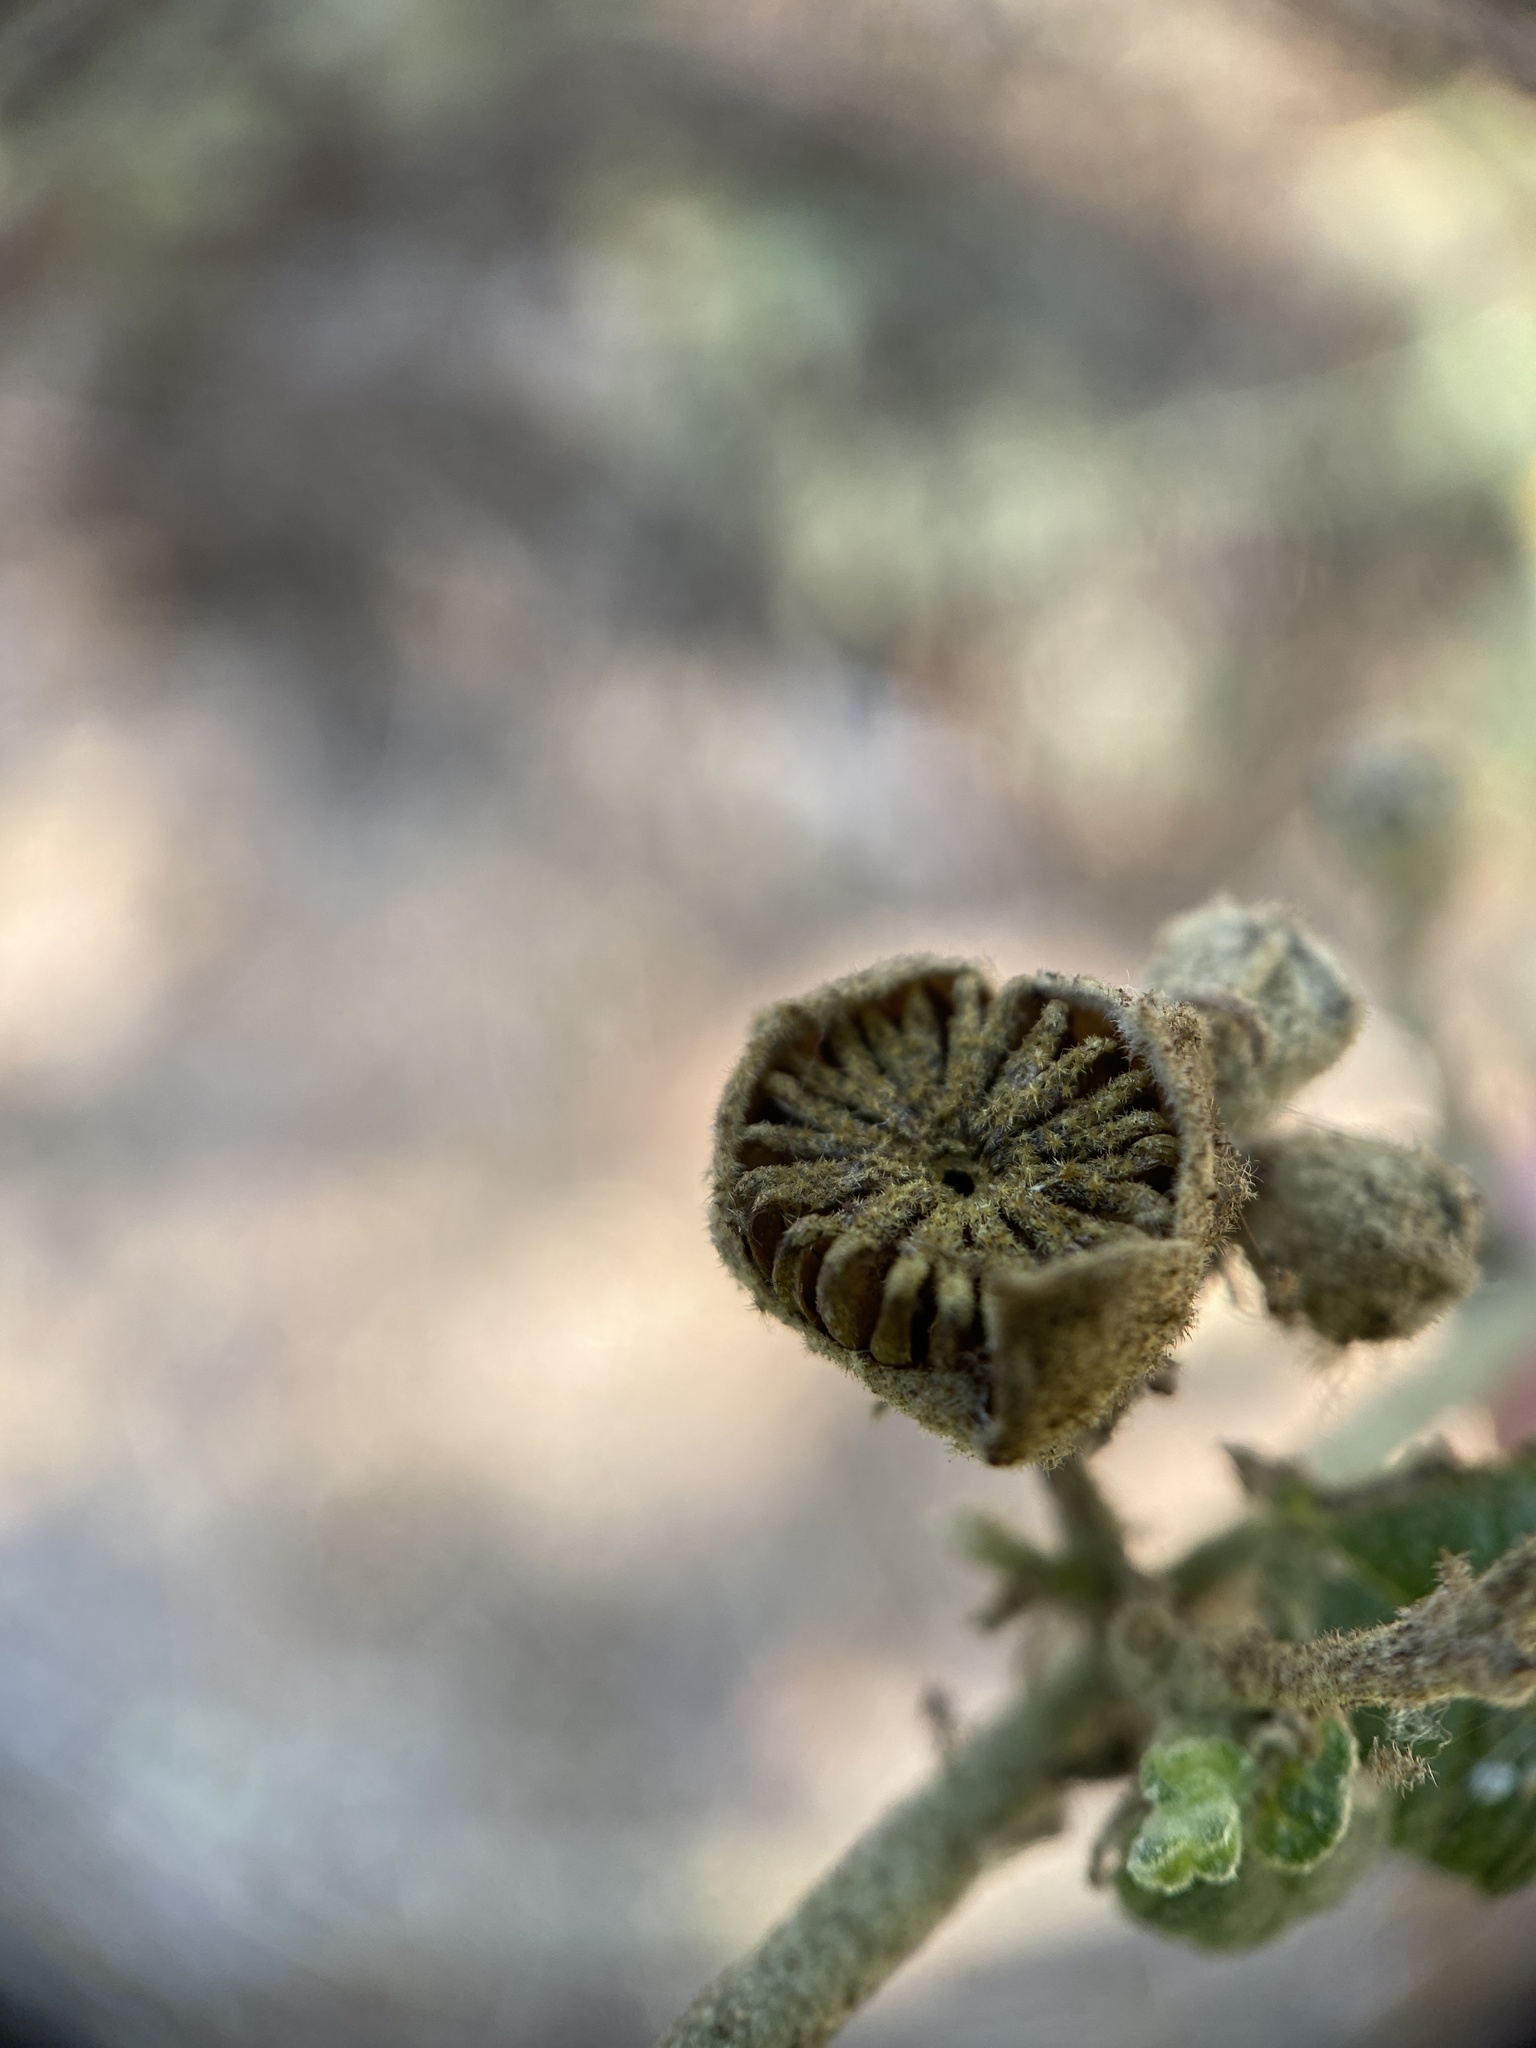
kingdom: Plantae
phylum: Tracheophyta
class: Magnoliopsida
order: Malvales
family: Malvaceae
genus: Malacothamnus
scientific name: Malacothamnus fasciculatus
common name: Sant cruz island bush-mallow
